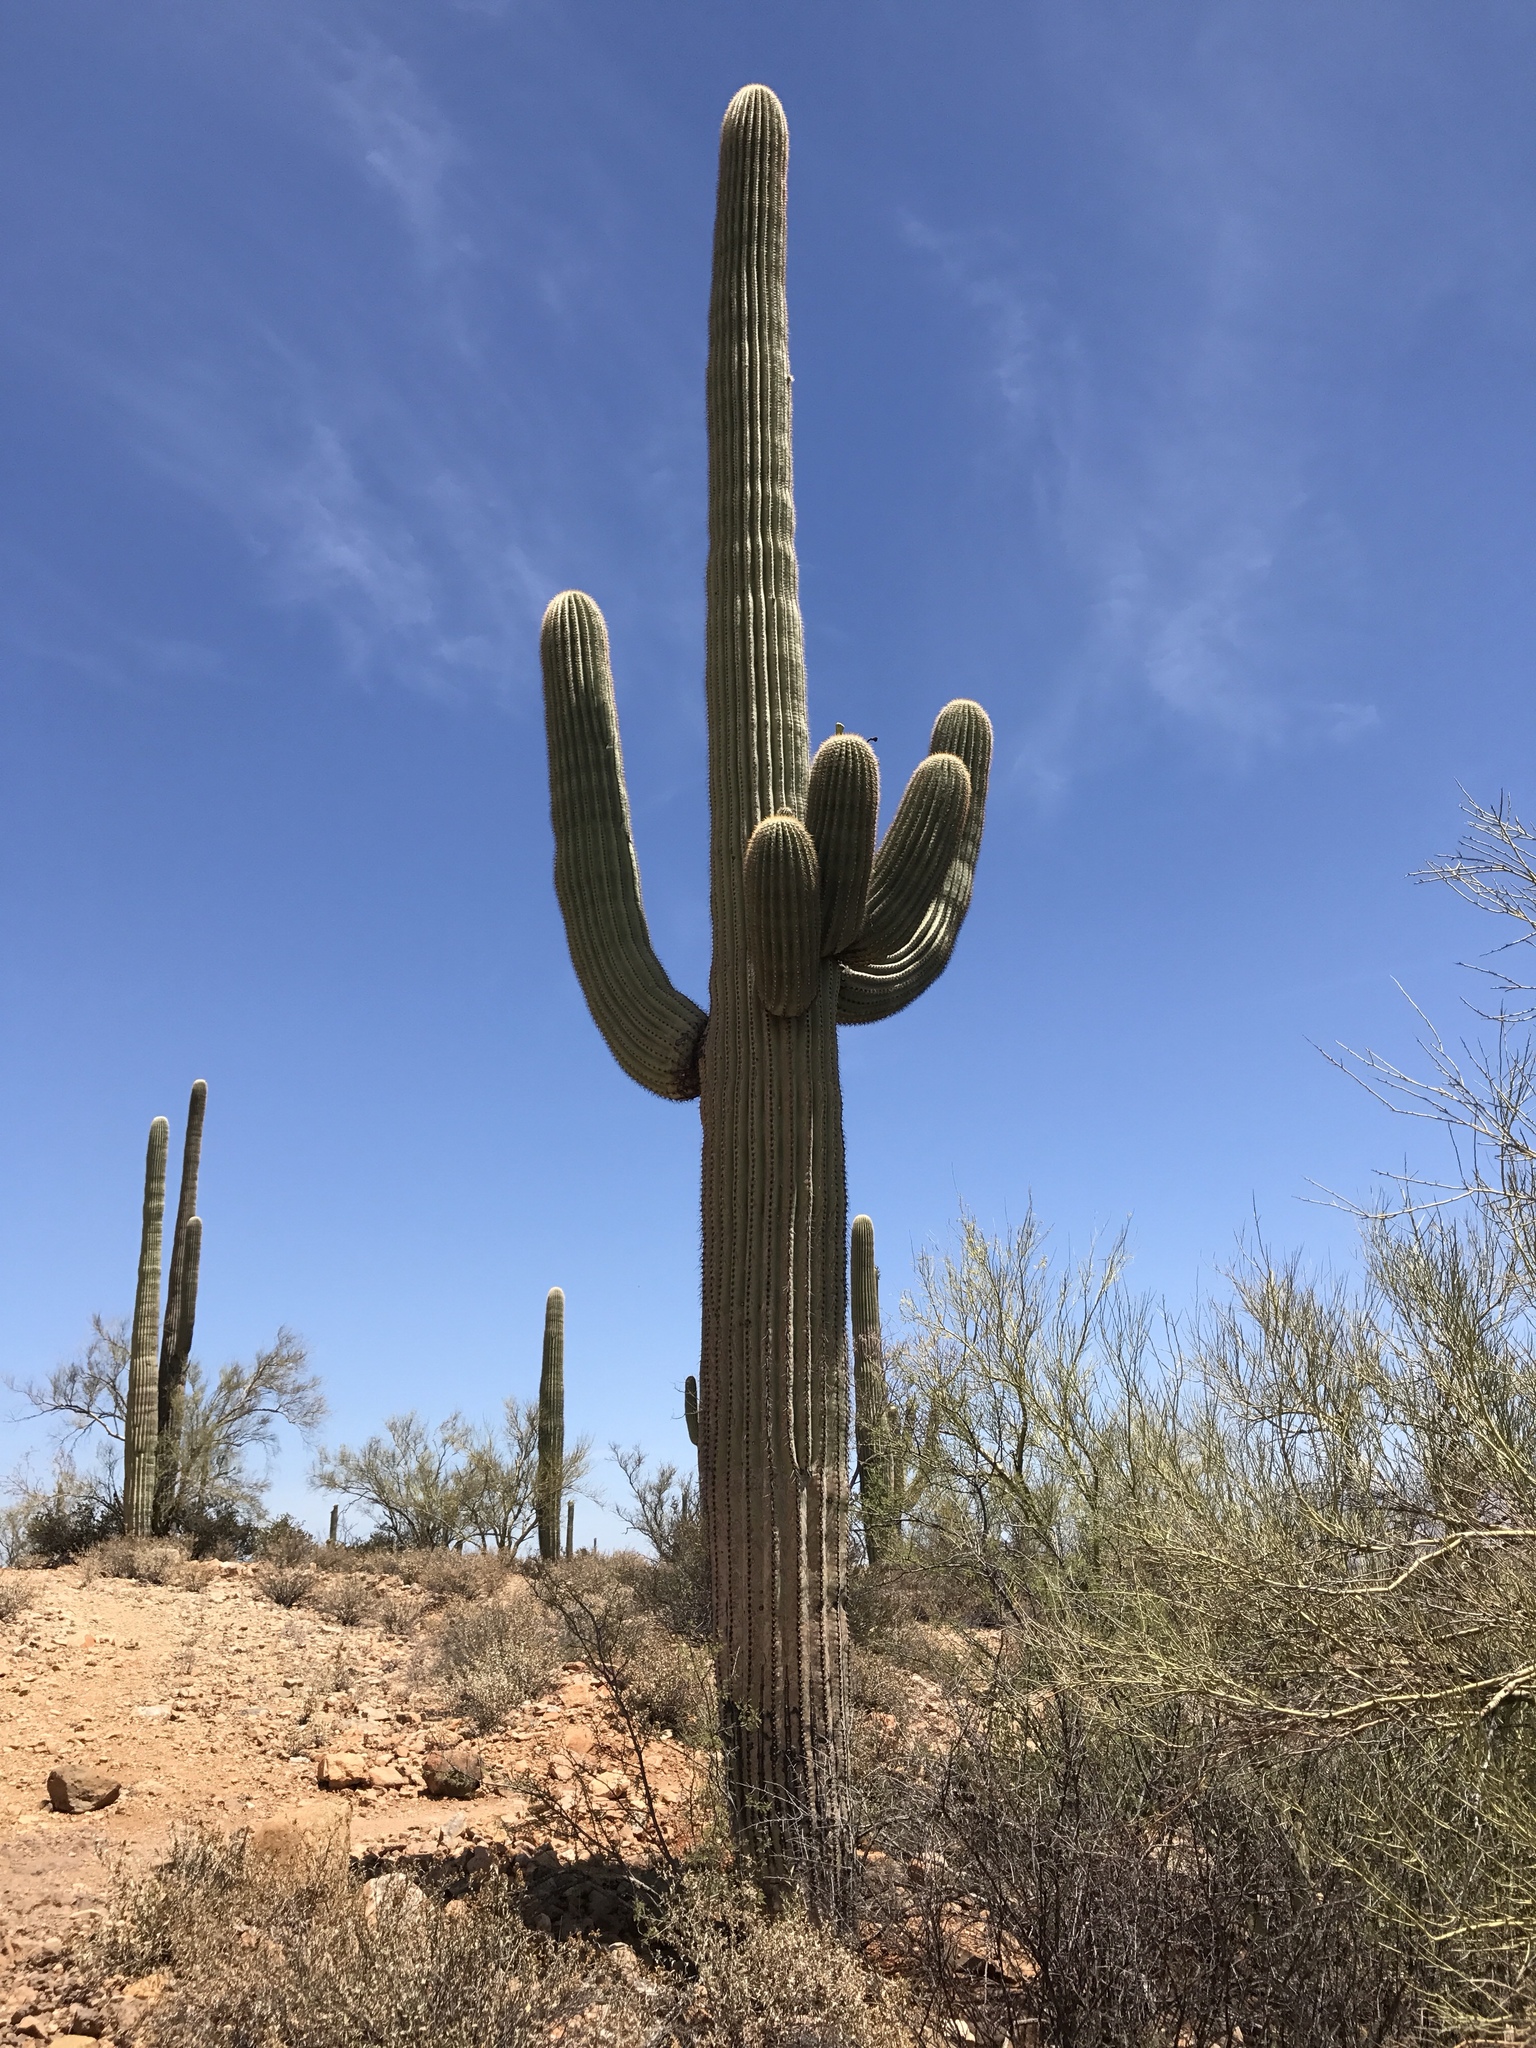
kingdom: Plantae
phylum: Tracheophyta
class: Magnoliopsida
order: Caryophyllales
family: Cactaceae
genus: Carnegiea
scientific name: Carnegiea gigantea
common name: Saguaro
